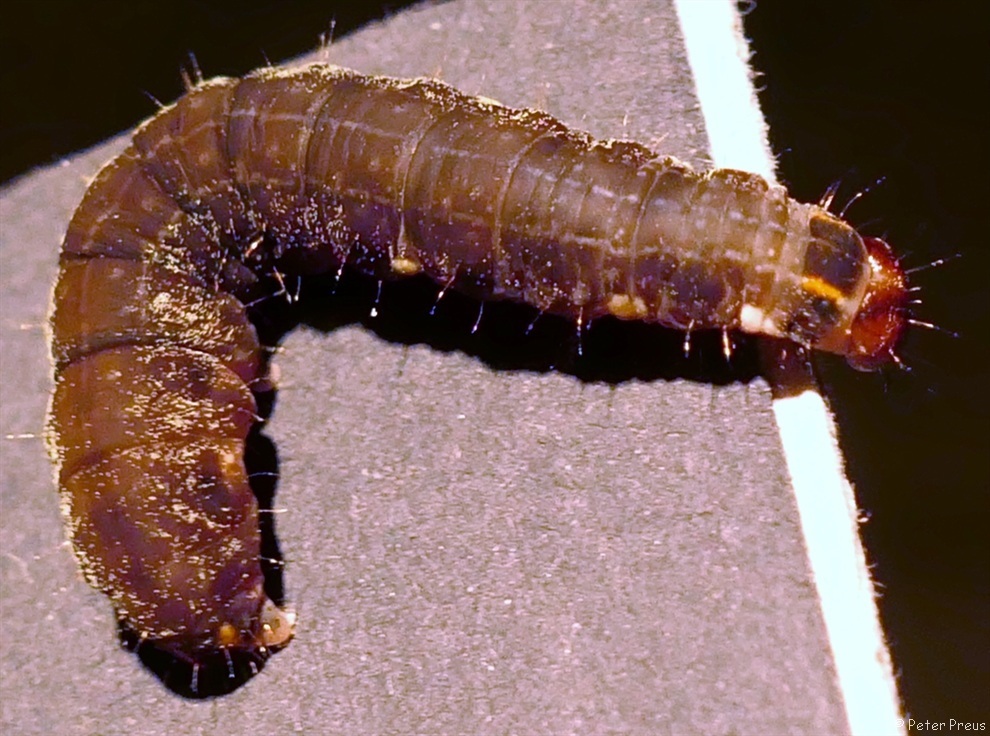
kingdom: Animalia
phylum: Arthropoda
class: Insecta
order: Lepidoptera
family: Noctuidae
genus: Eupsilia
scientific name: Eupsilia transversa
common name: Satellite
